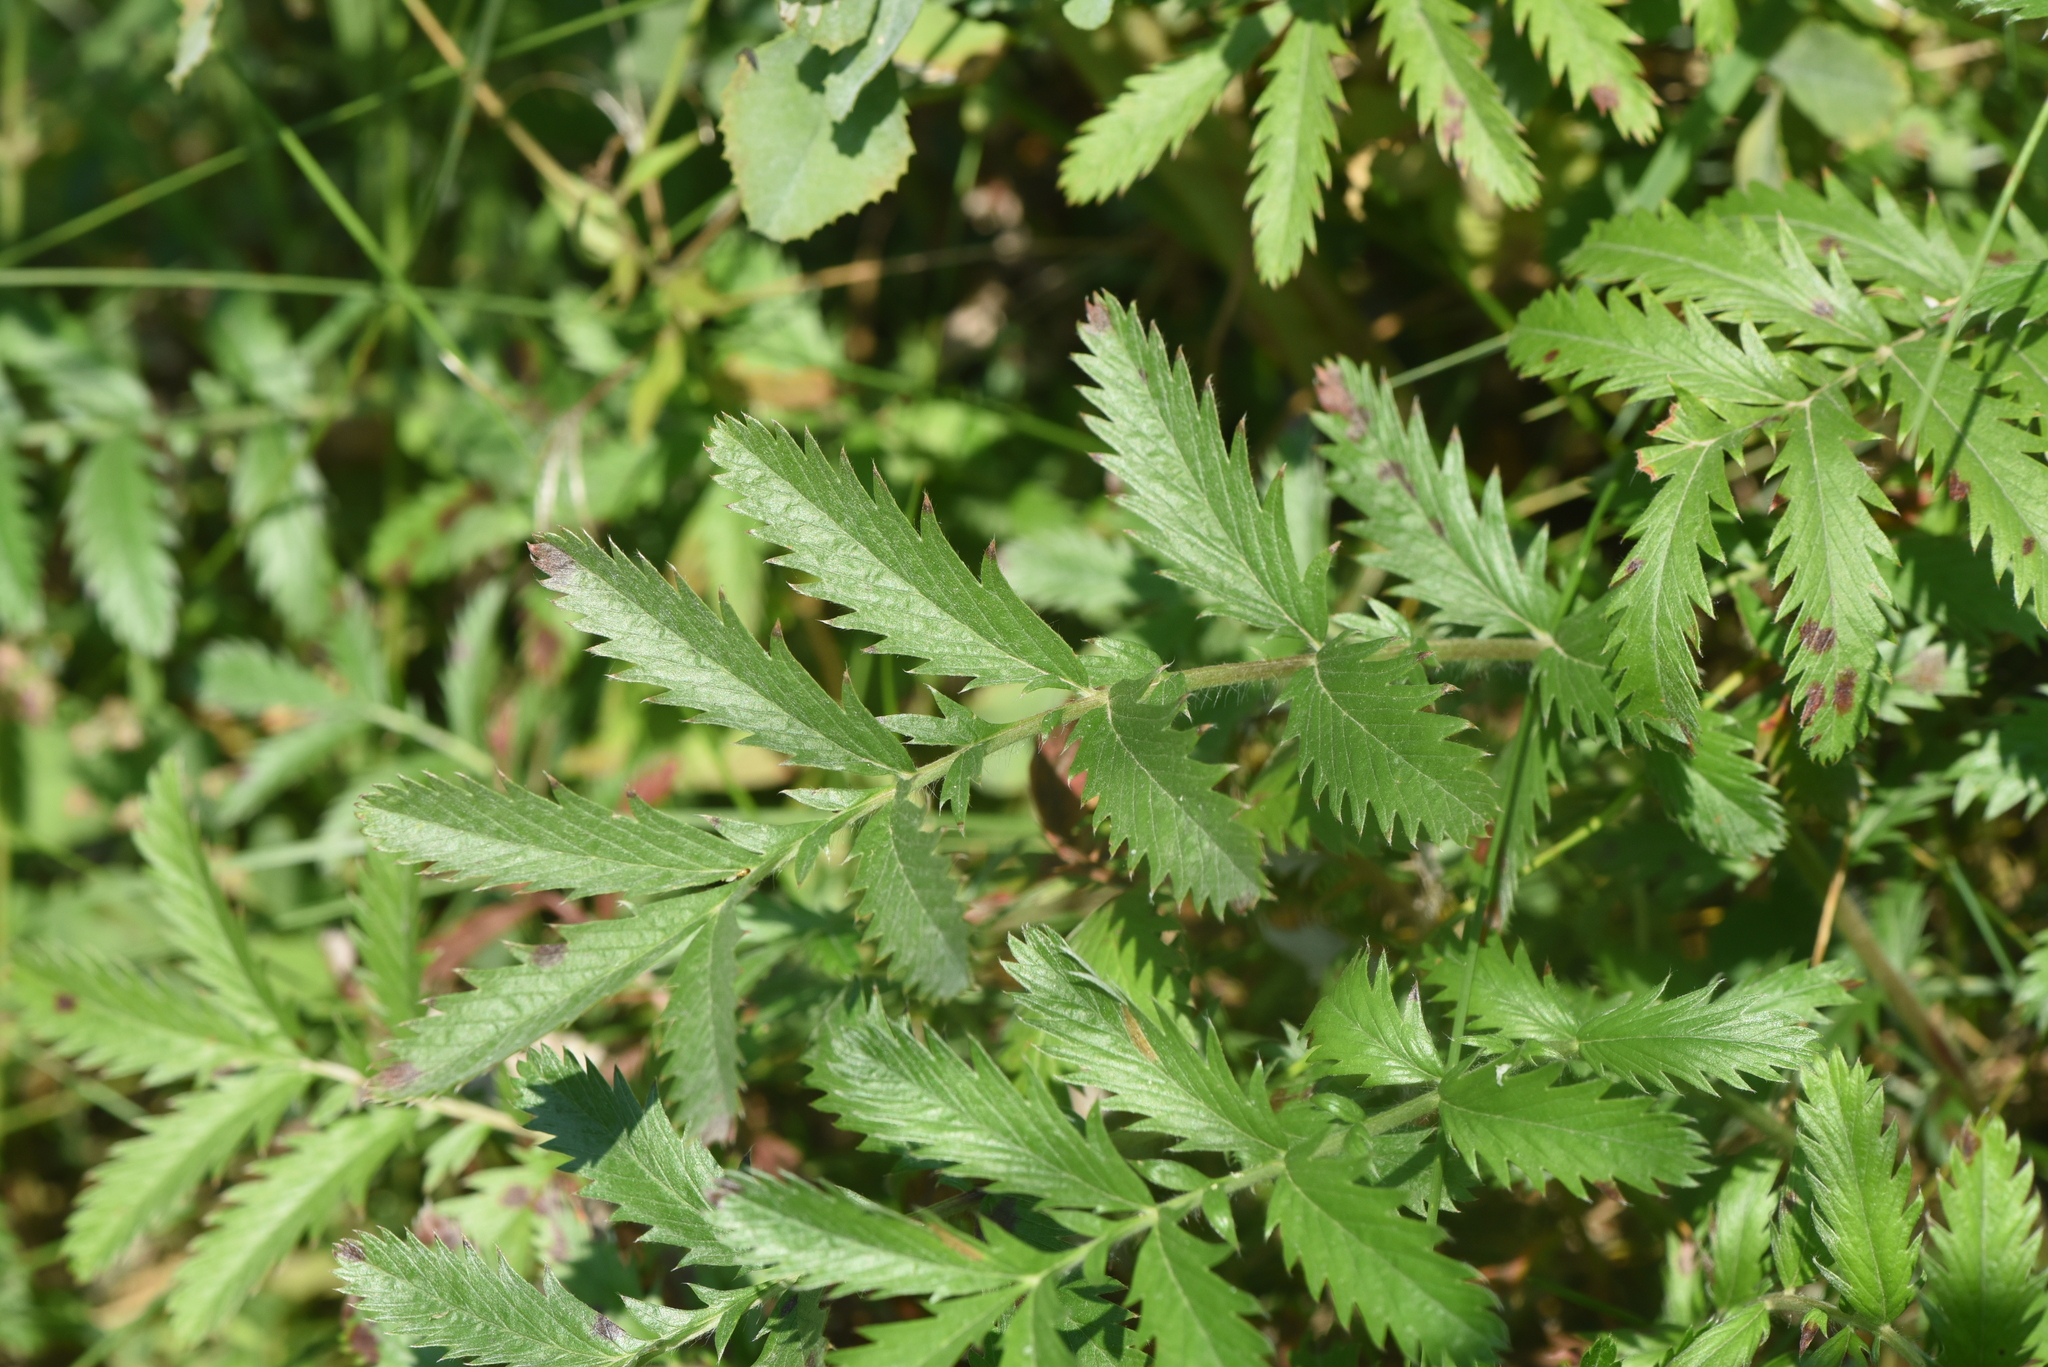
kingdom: Plantae
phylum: Tracheophyta
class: Magnoliopsida
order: Rosales
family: Rosaceae
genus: Argentina
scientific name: Argentina anserina
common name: Common silverweed
